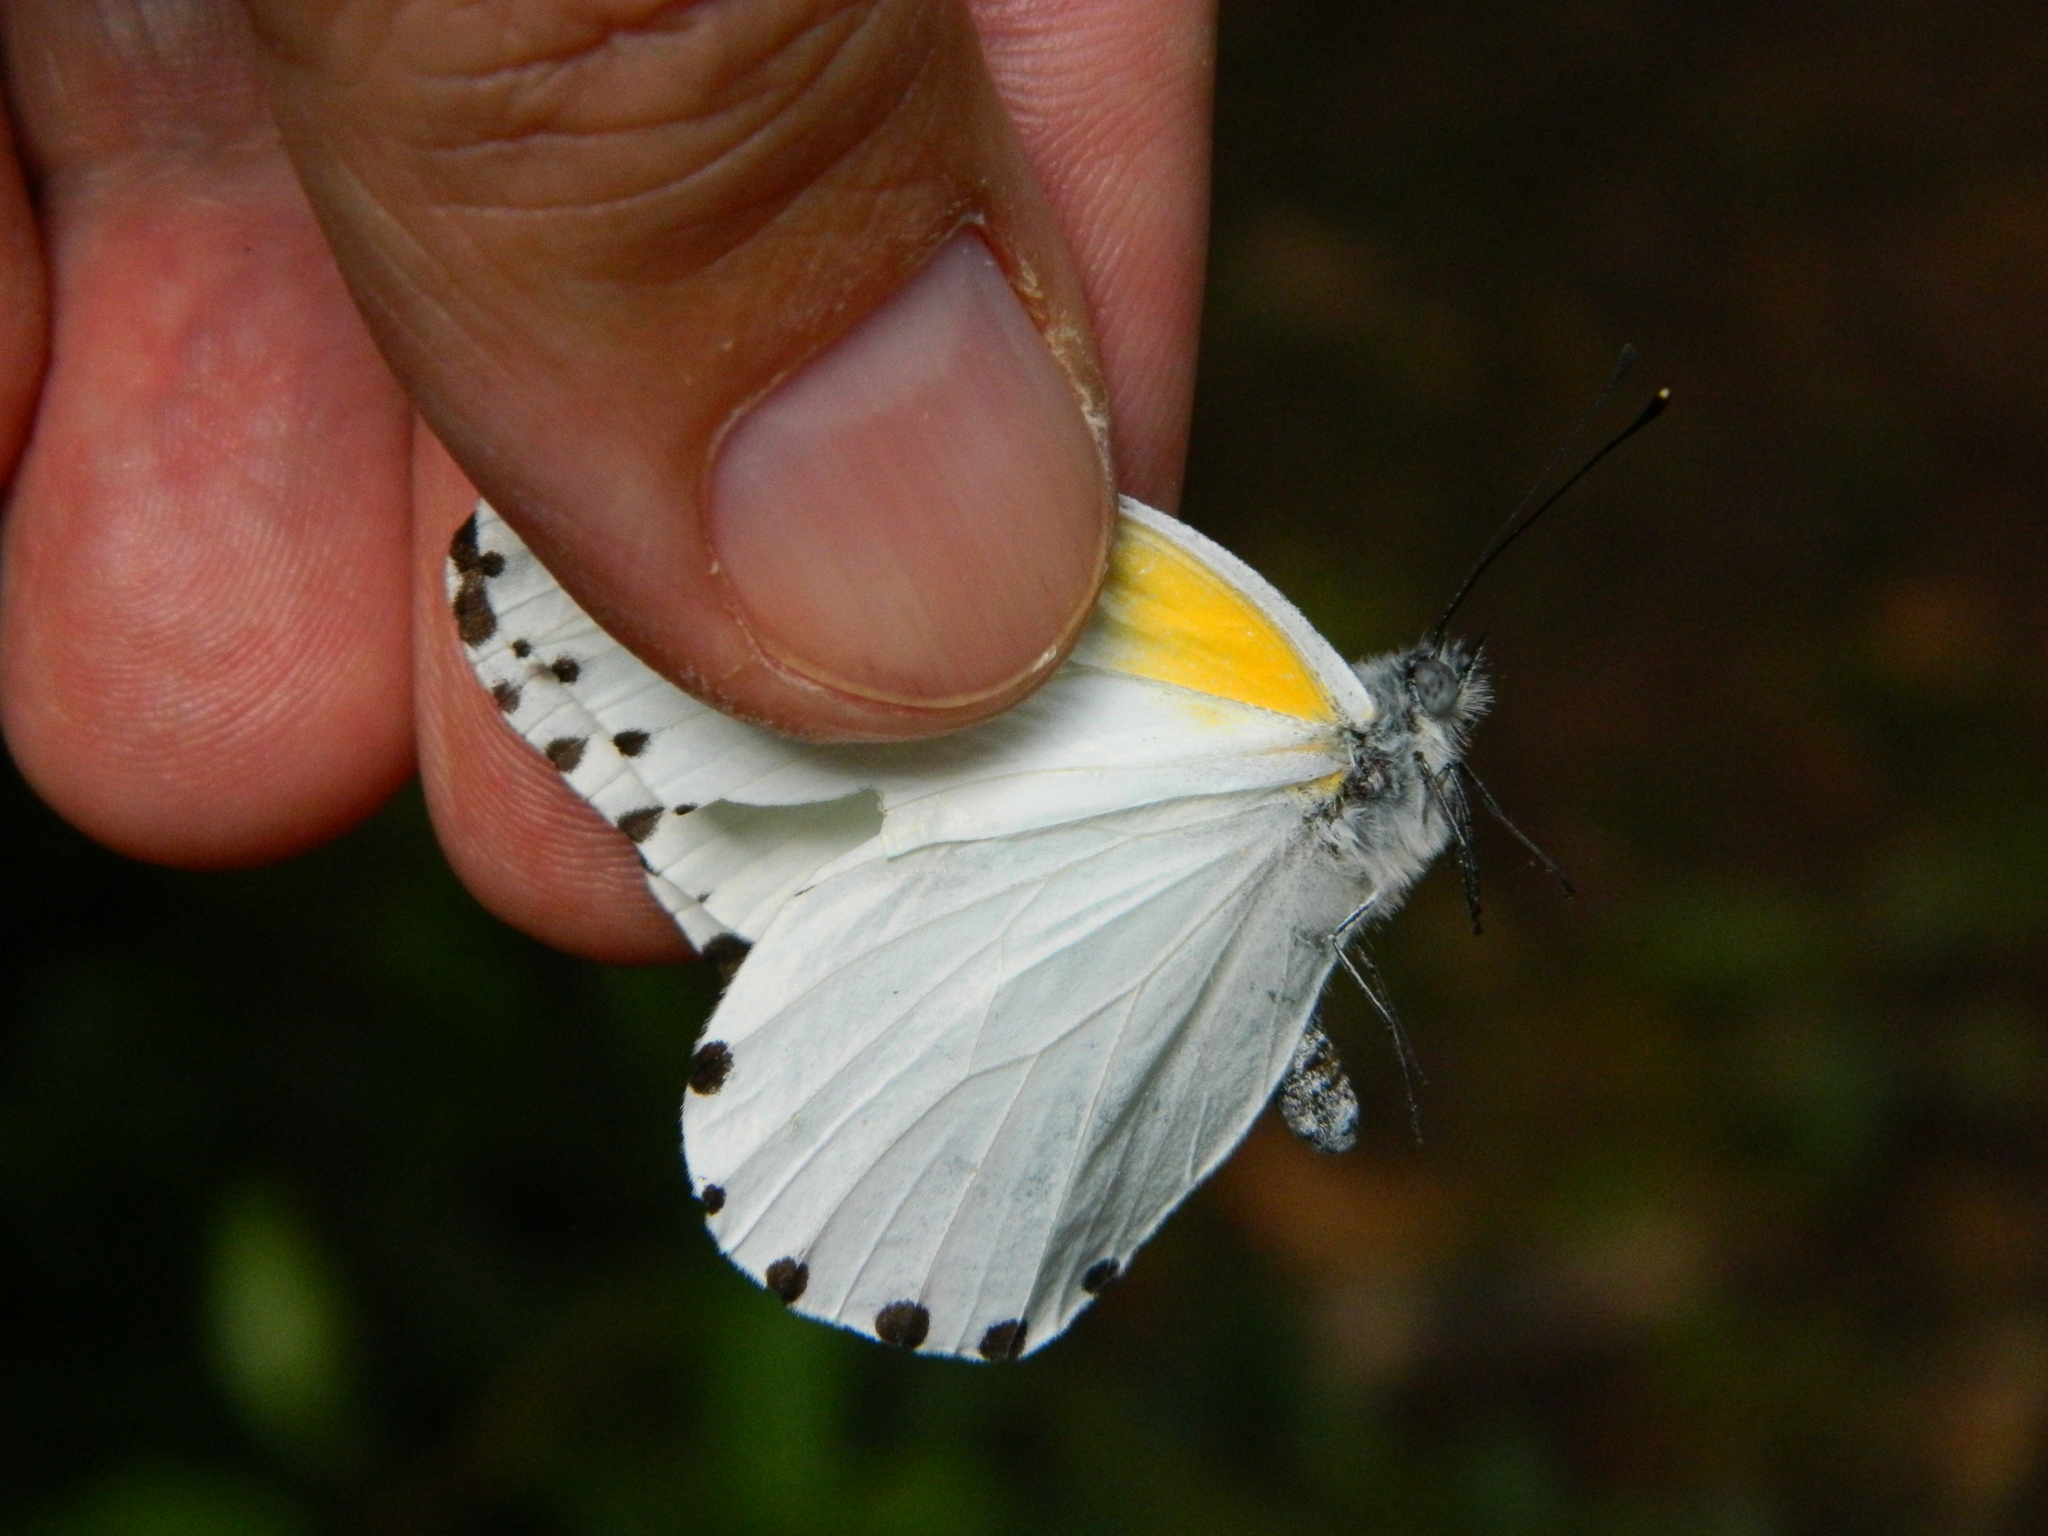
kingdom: Animalia
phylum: Arthropoda
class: Insecta
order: Lepidoptera
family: Pieridae
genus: Mylothris
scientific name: Mylothris phileris
